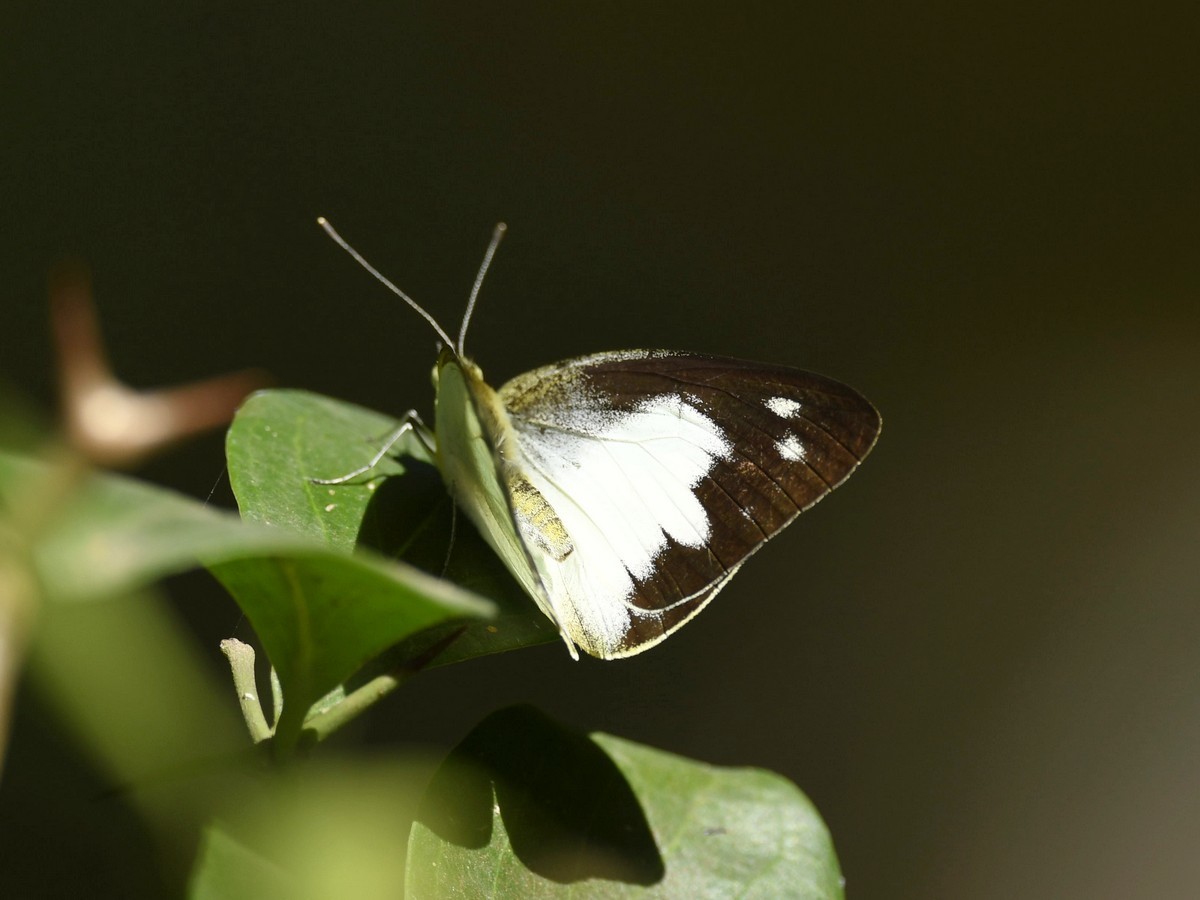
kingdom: Animalia
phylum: Arthropoda
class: Insecta
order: Lepidoptera
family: Pieridae
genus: Appias
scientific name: Appias albina
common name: Common albatross
